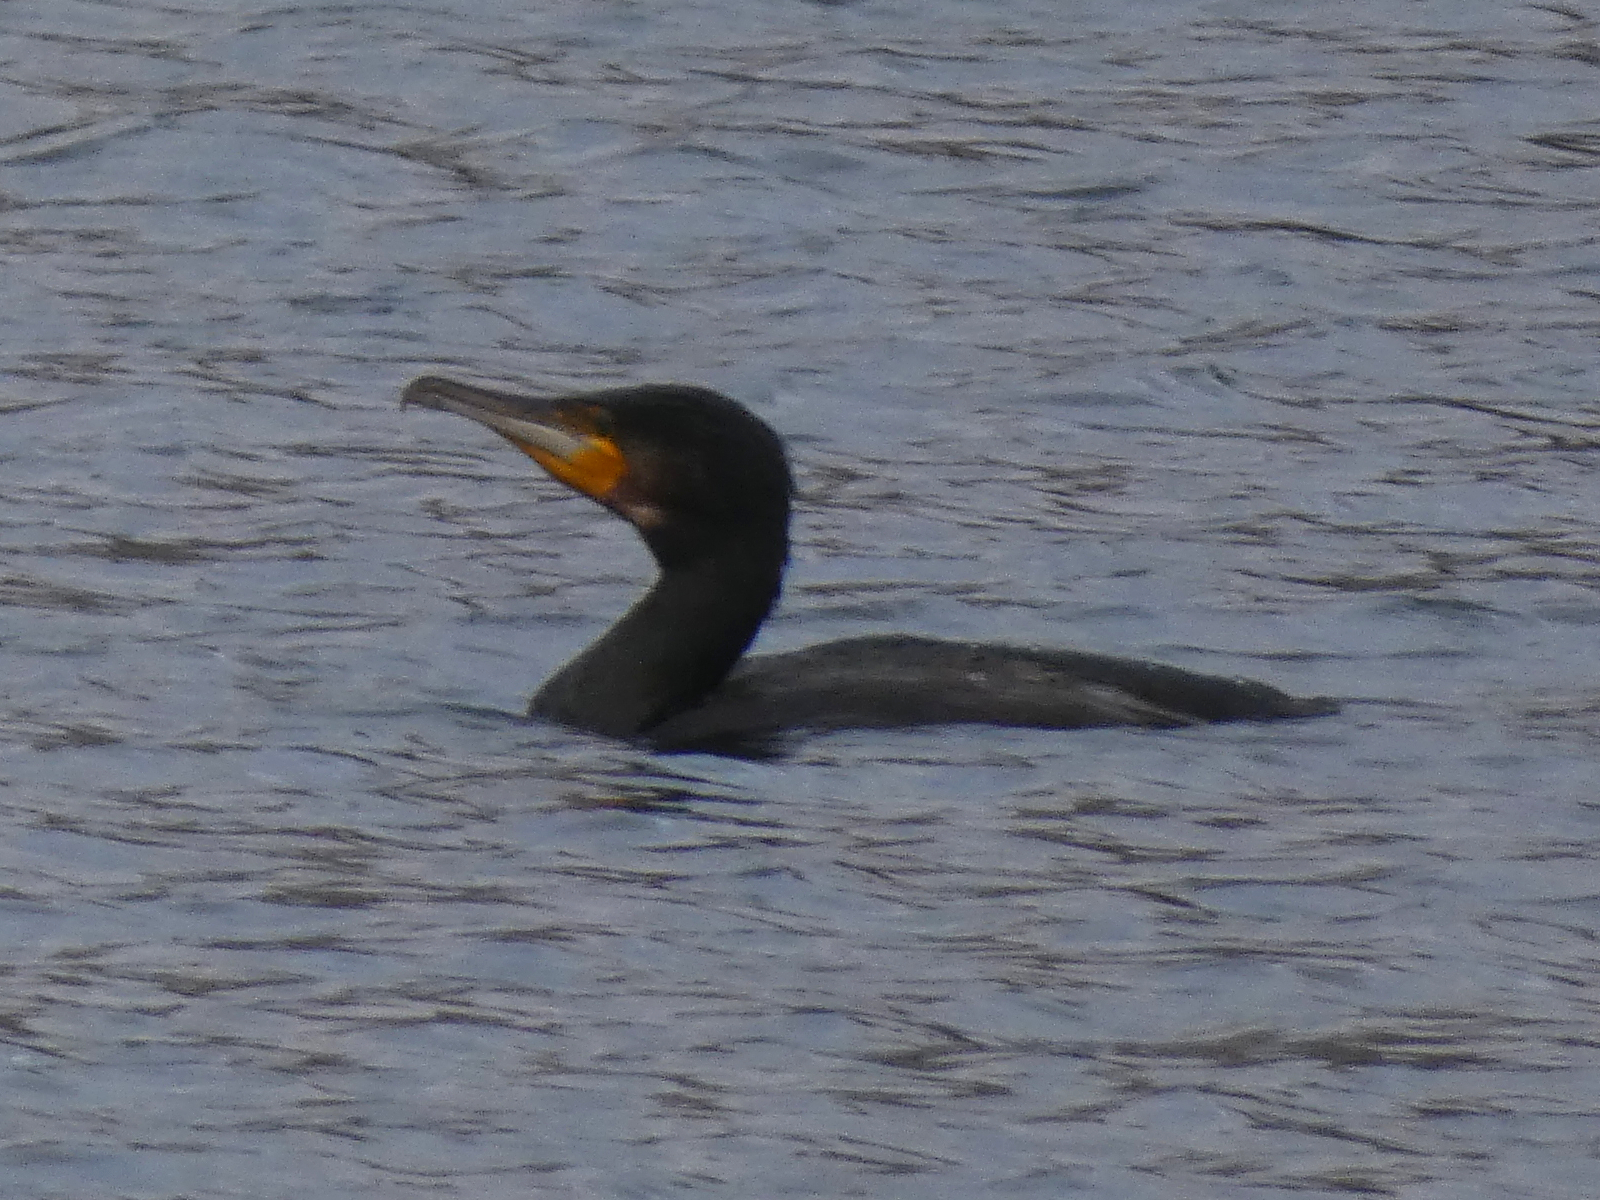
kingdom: Animalia
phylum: Chordata
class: Aves
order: Suliformes
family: Phalacrocoracidae
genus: Phalacrocorax
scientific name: Phalacrocorax carbo
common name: Great cormorant
